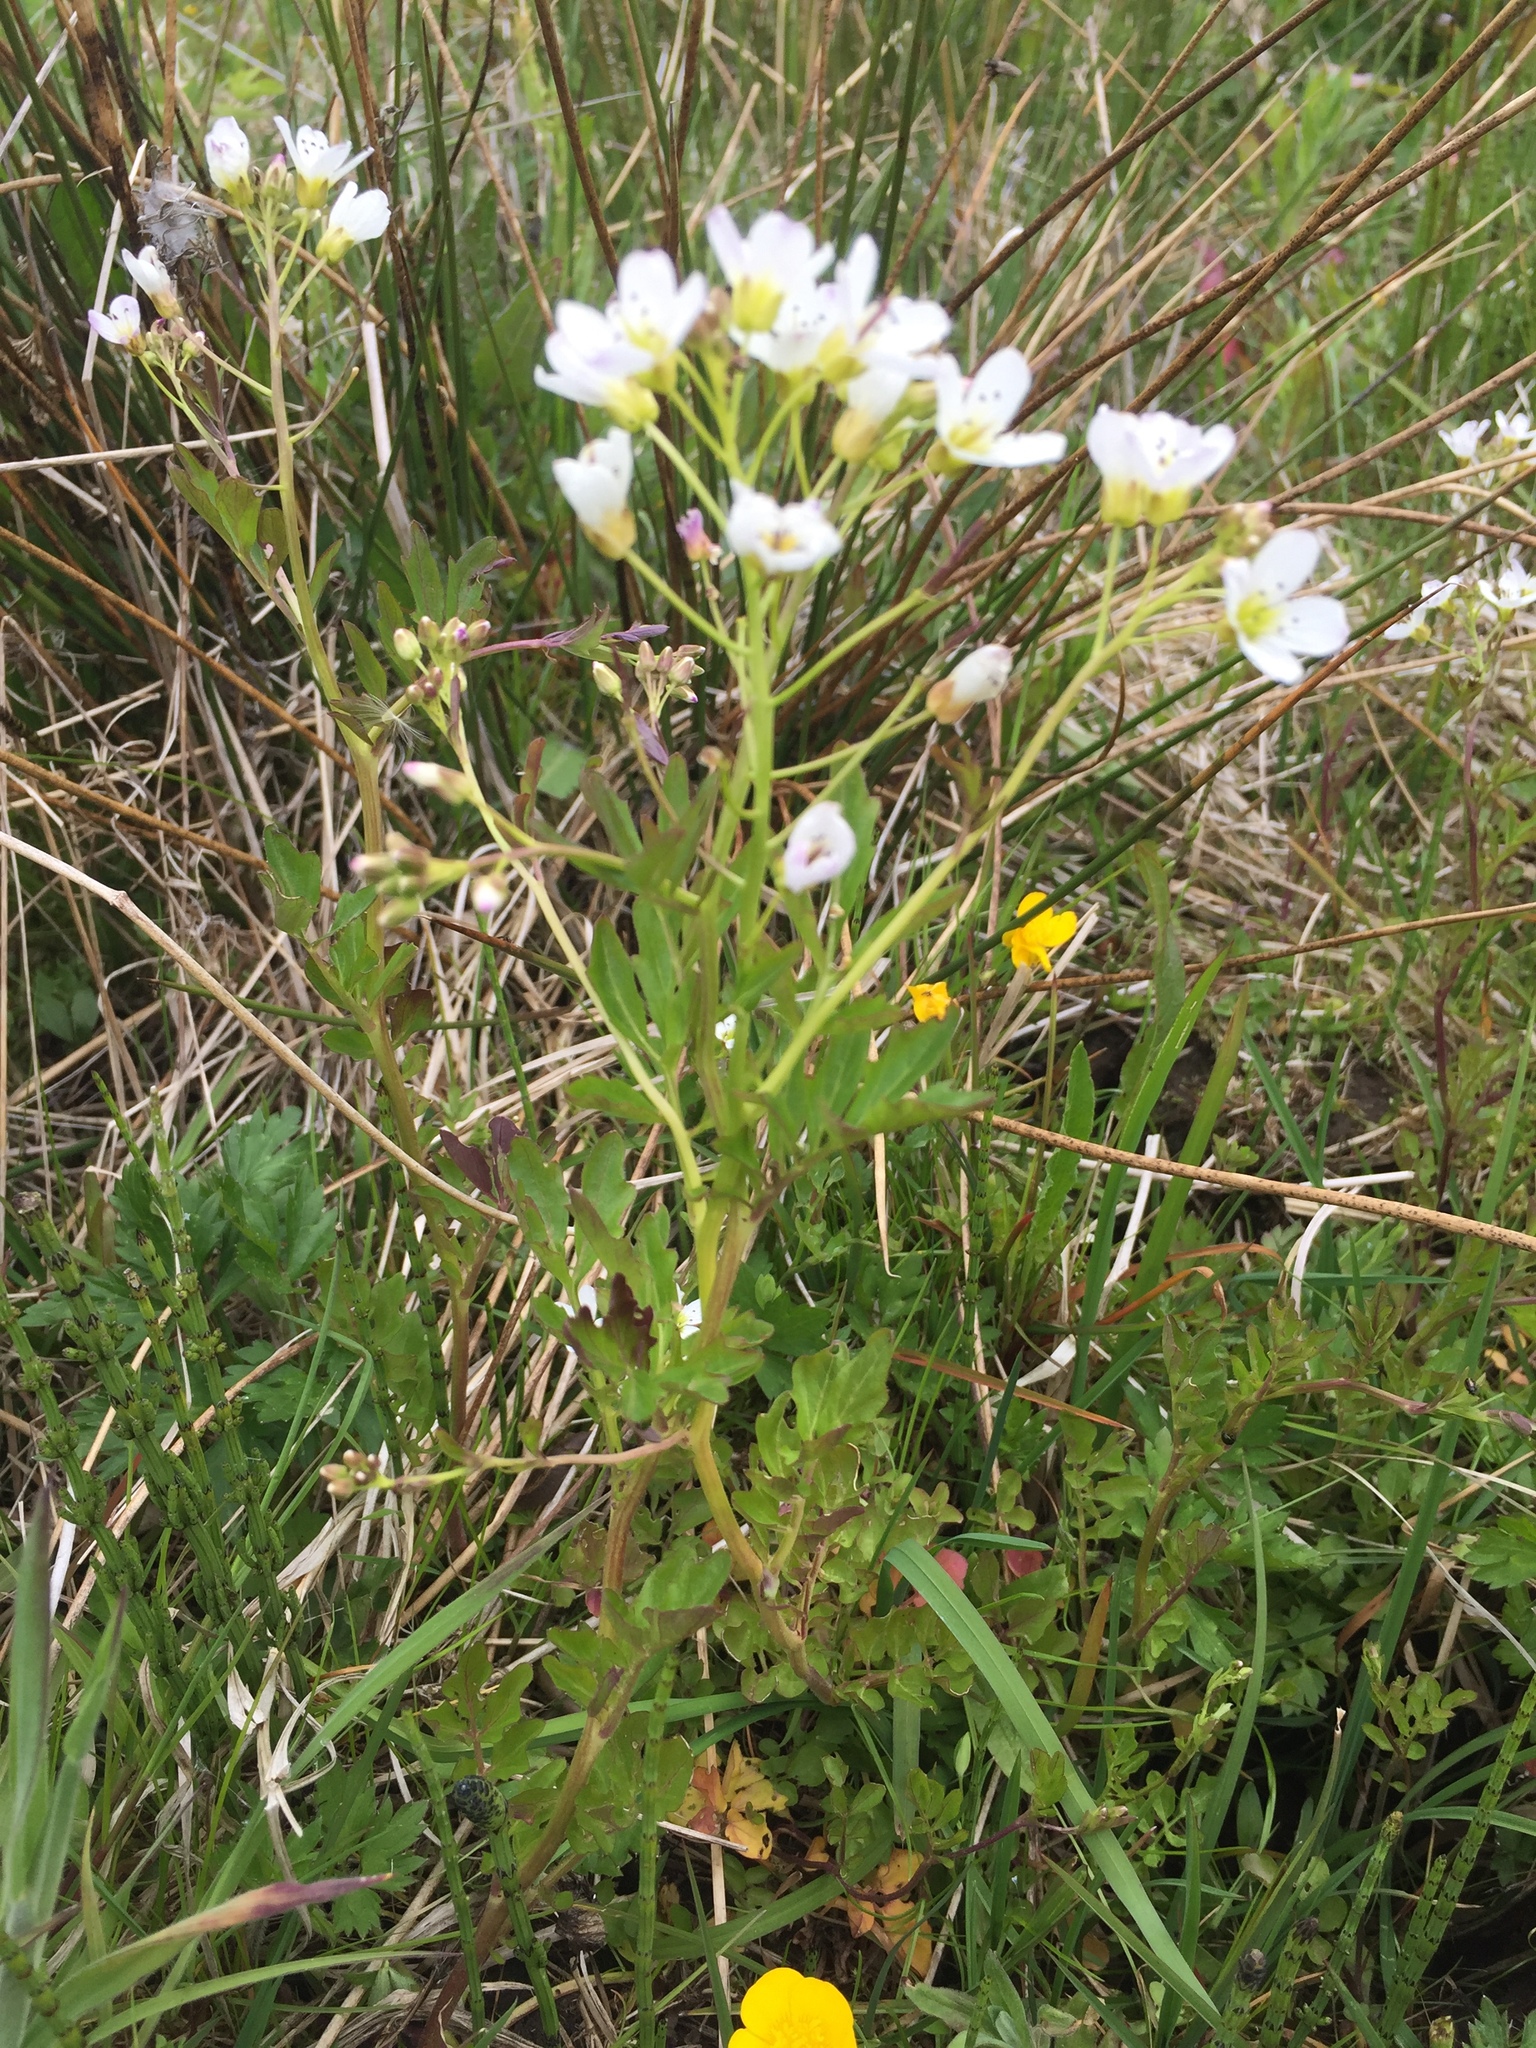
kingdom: Plantae
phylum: Tracheophyta
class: Magnoliopsida
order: Brassicales
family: Brassicaceae
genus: Cardamine
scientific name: Cardamine amara
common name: Large bitter-cress
